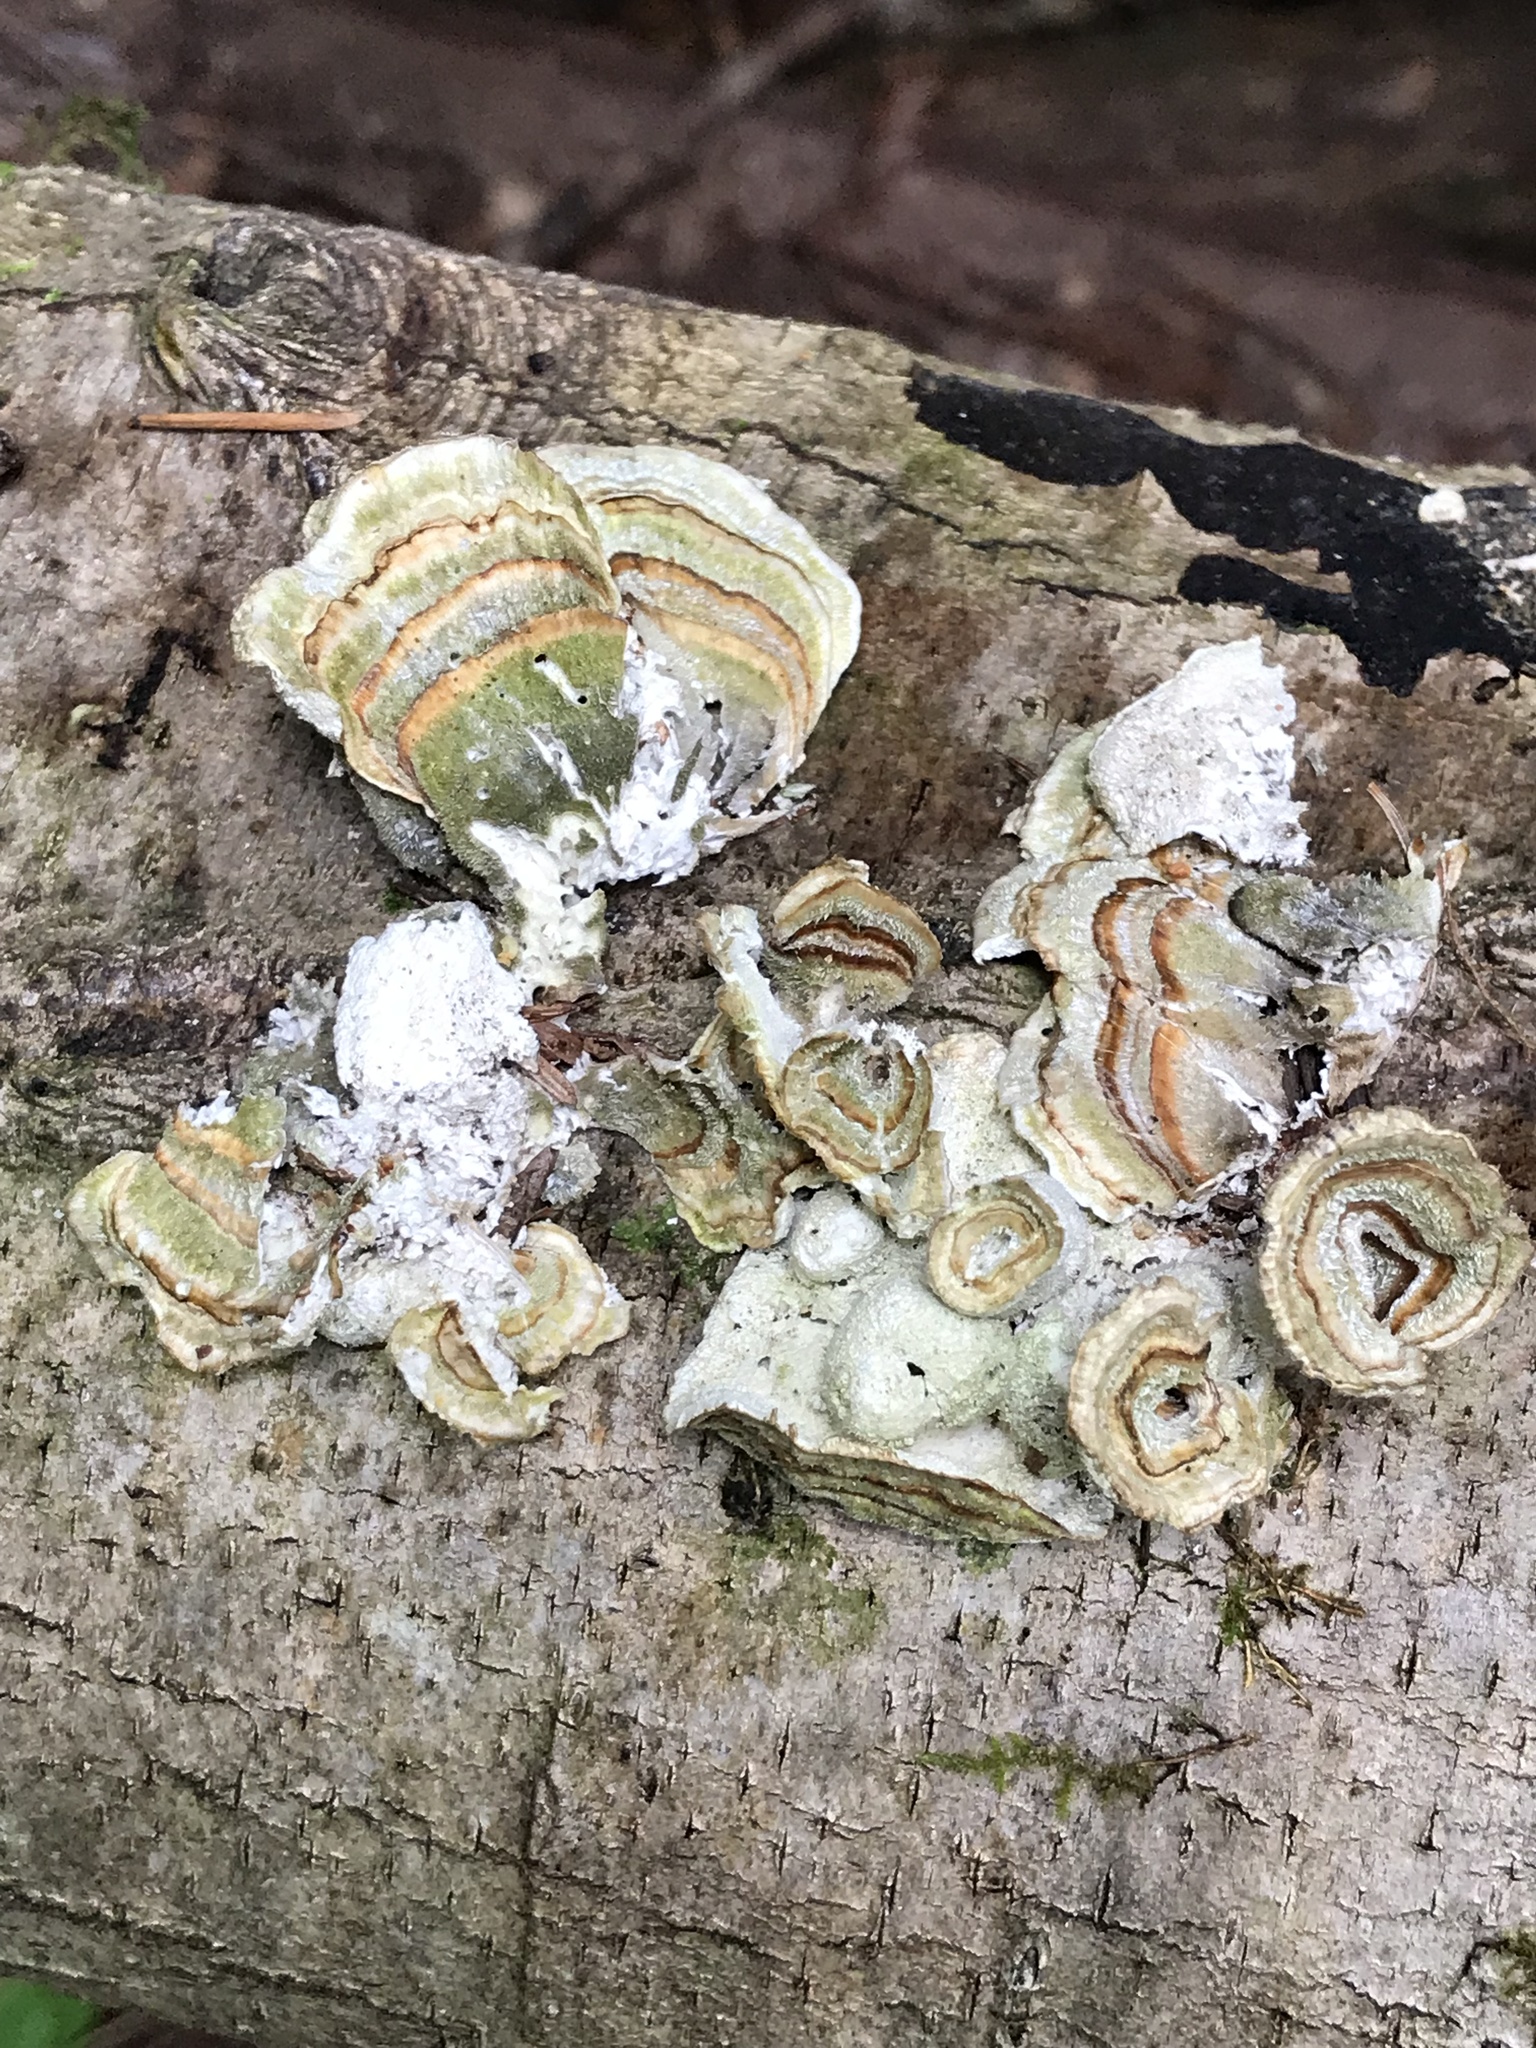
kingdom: Fungi
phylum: Basidiomycota
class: Agaricomycetes
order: Polyporales
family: Polyporaceae
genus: Trametes
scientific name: Trametes versicolor
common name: Turkeytail
